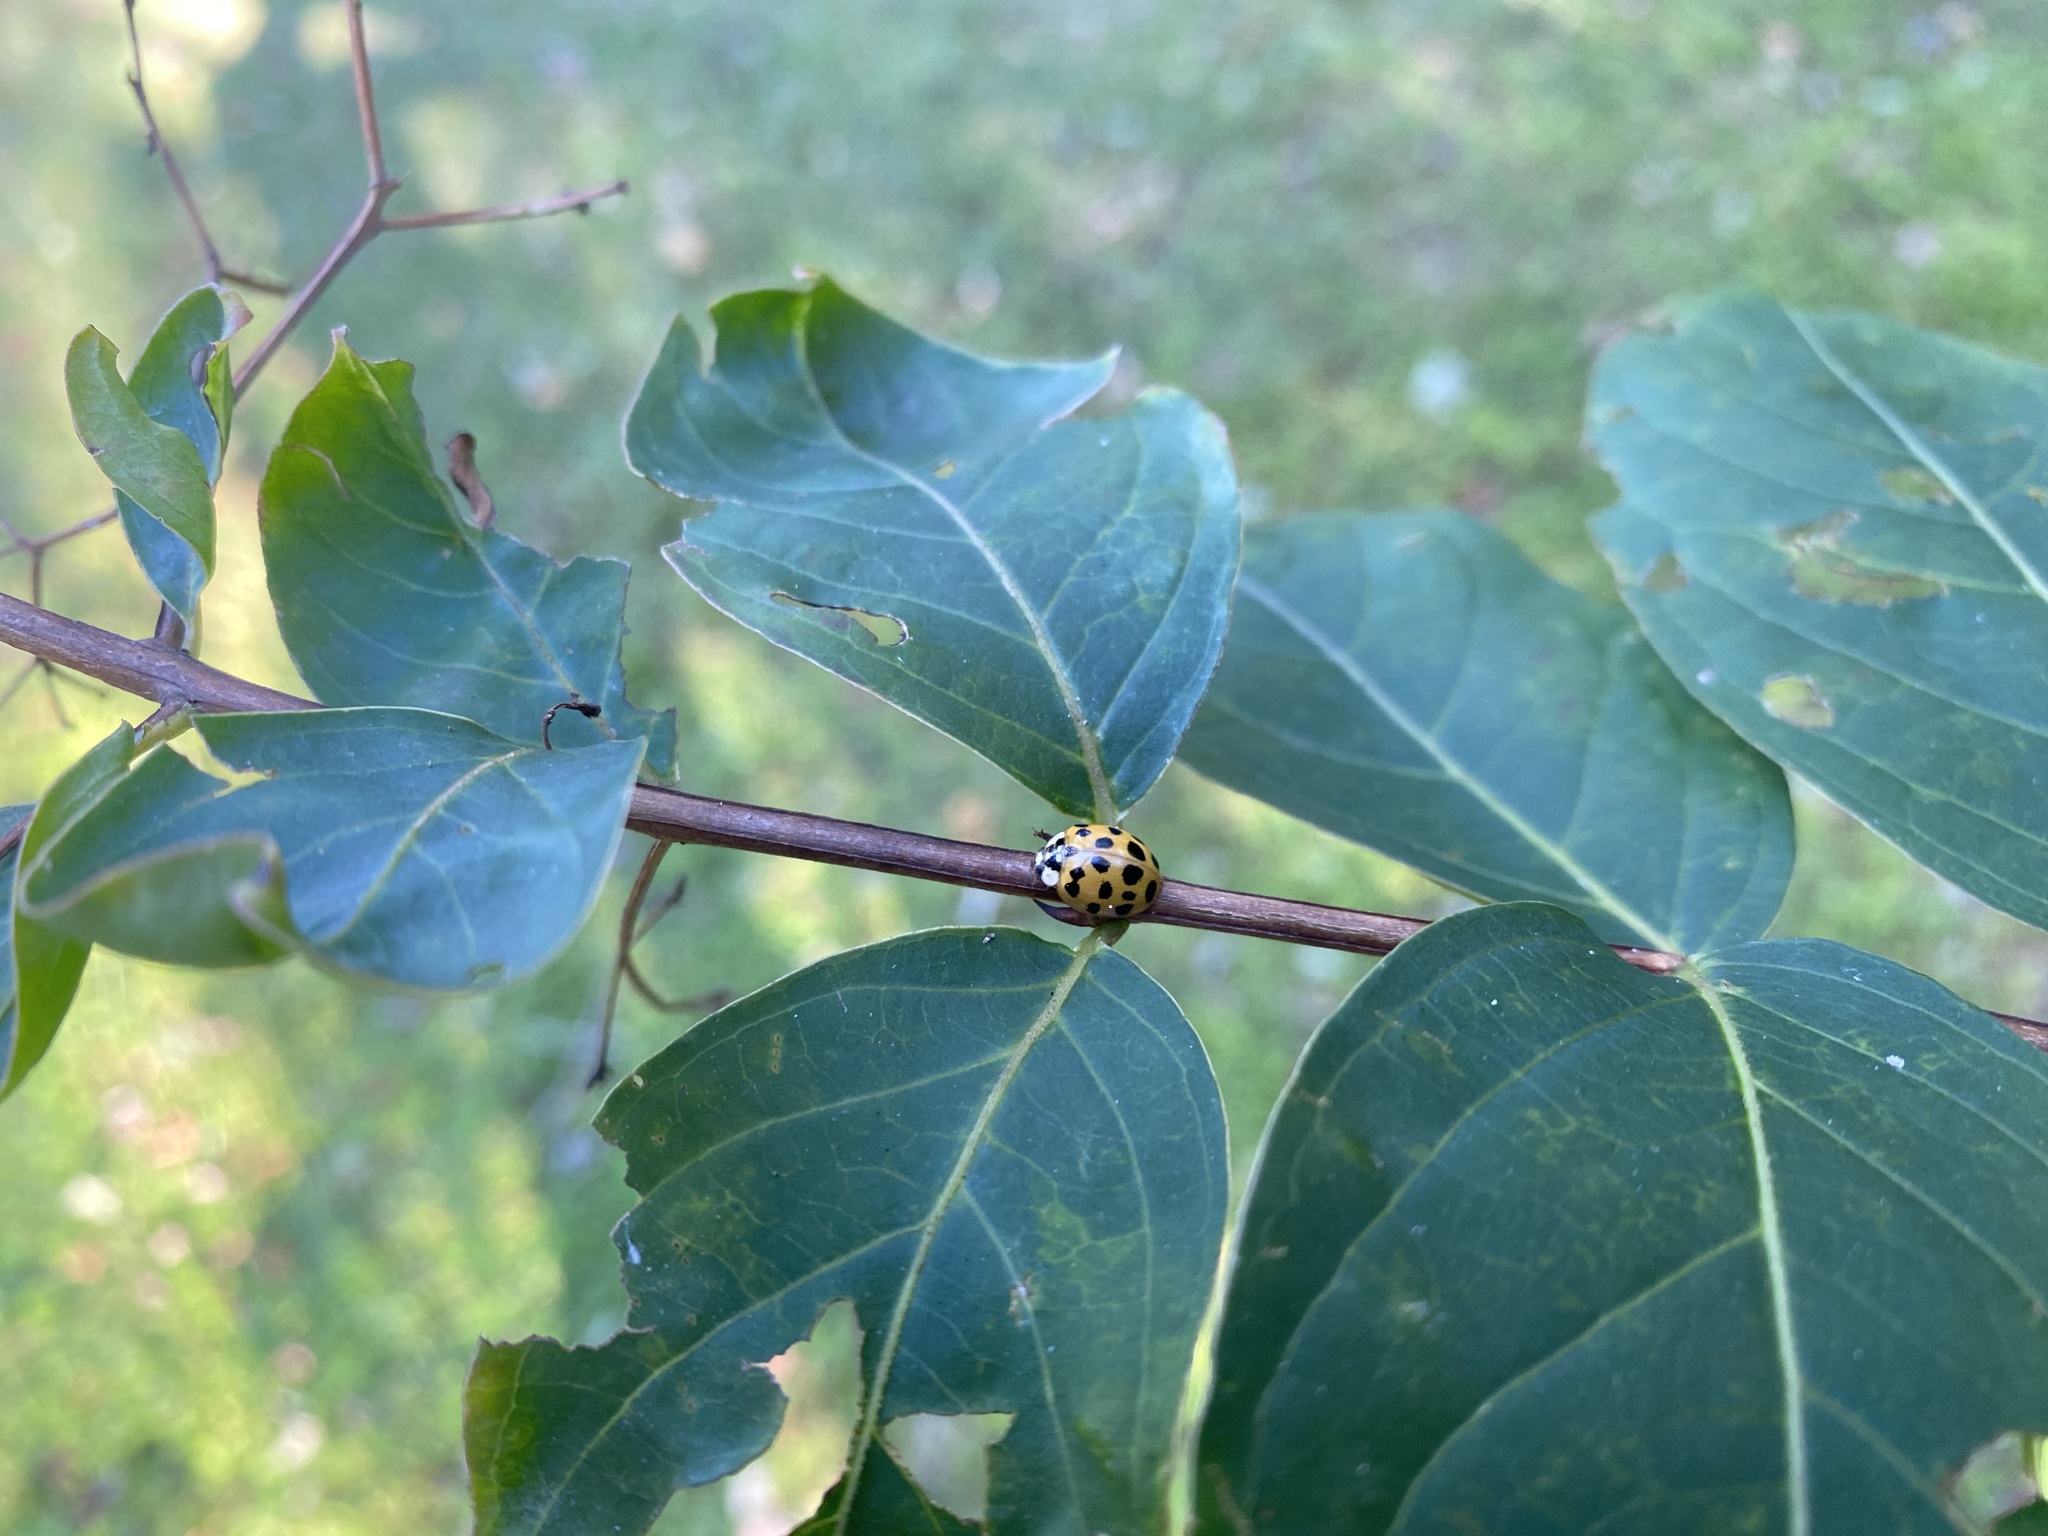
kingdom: Animalia
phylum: Arthropoda
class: Insecta
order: Coleoptera
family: Coccinellidae
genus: Harmonia
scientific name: Harmonia axyridis
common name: Harlequin ladybird
